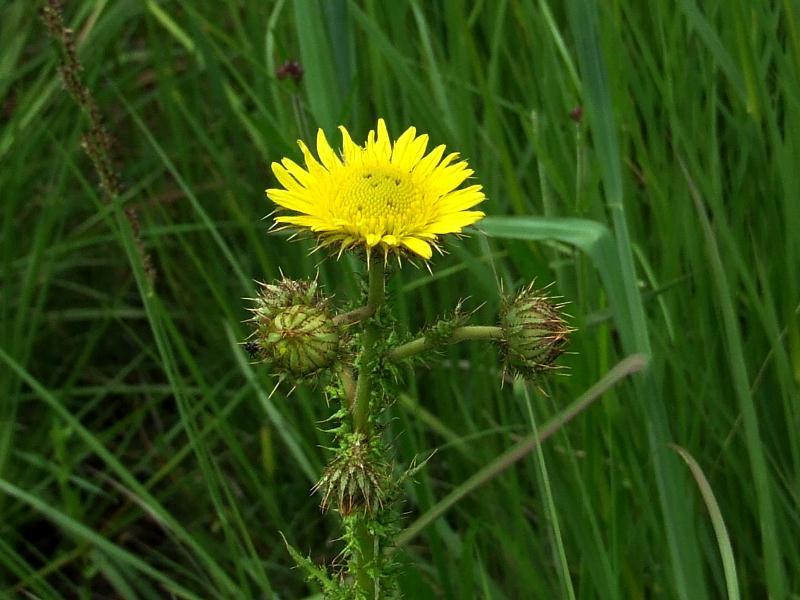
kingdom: Plantae
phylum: Tracheophyta
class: Magnoliopsida
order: Asterales
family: Asteraceae
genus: Berkheya
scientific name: Berkheya radula
